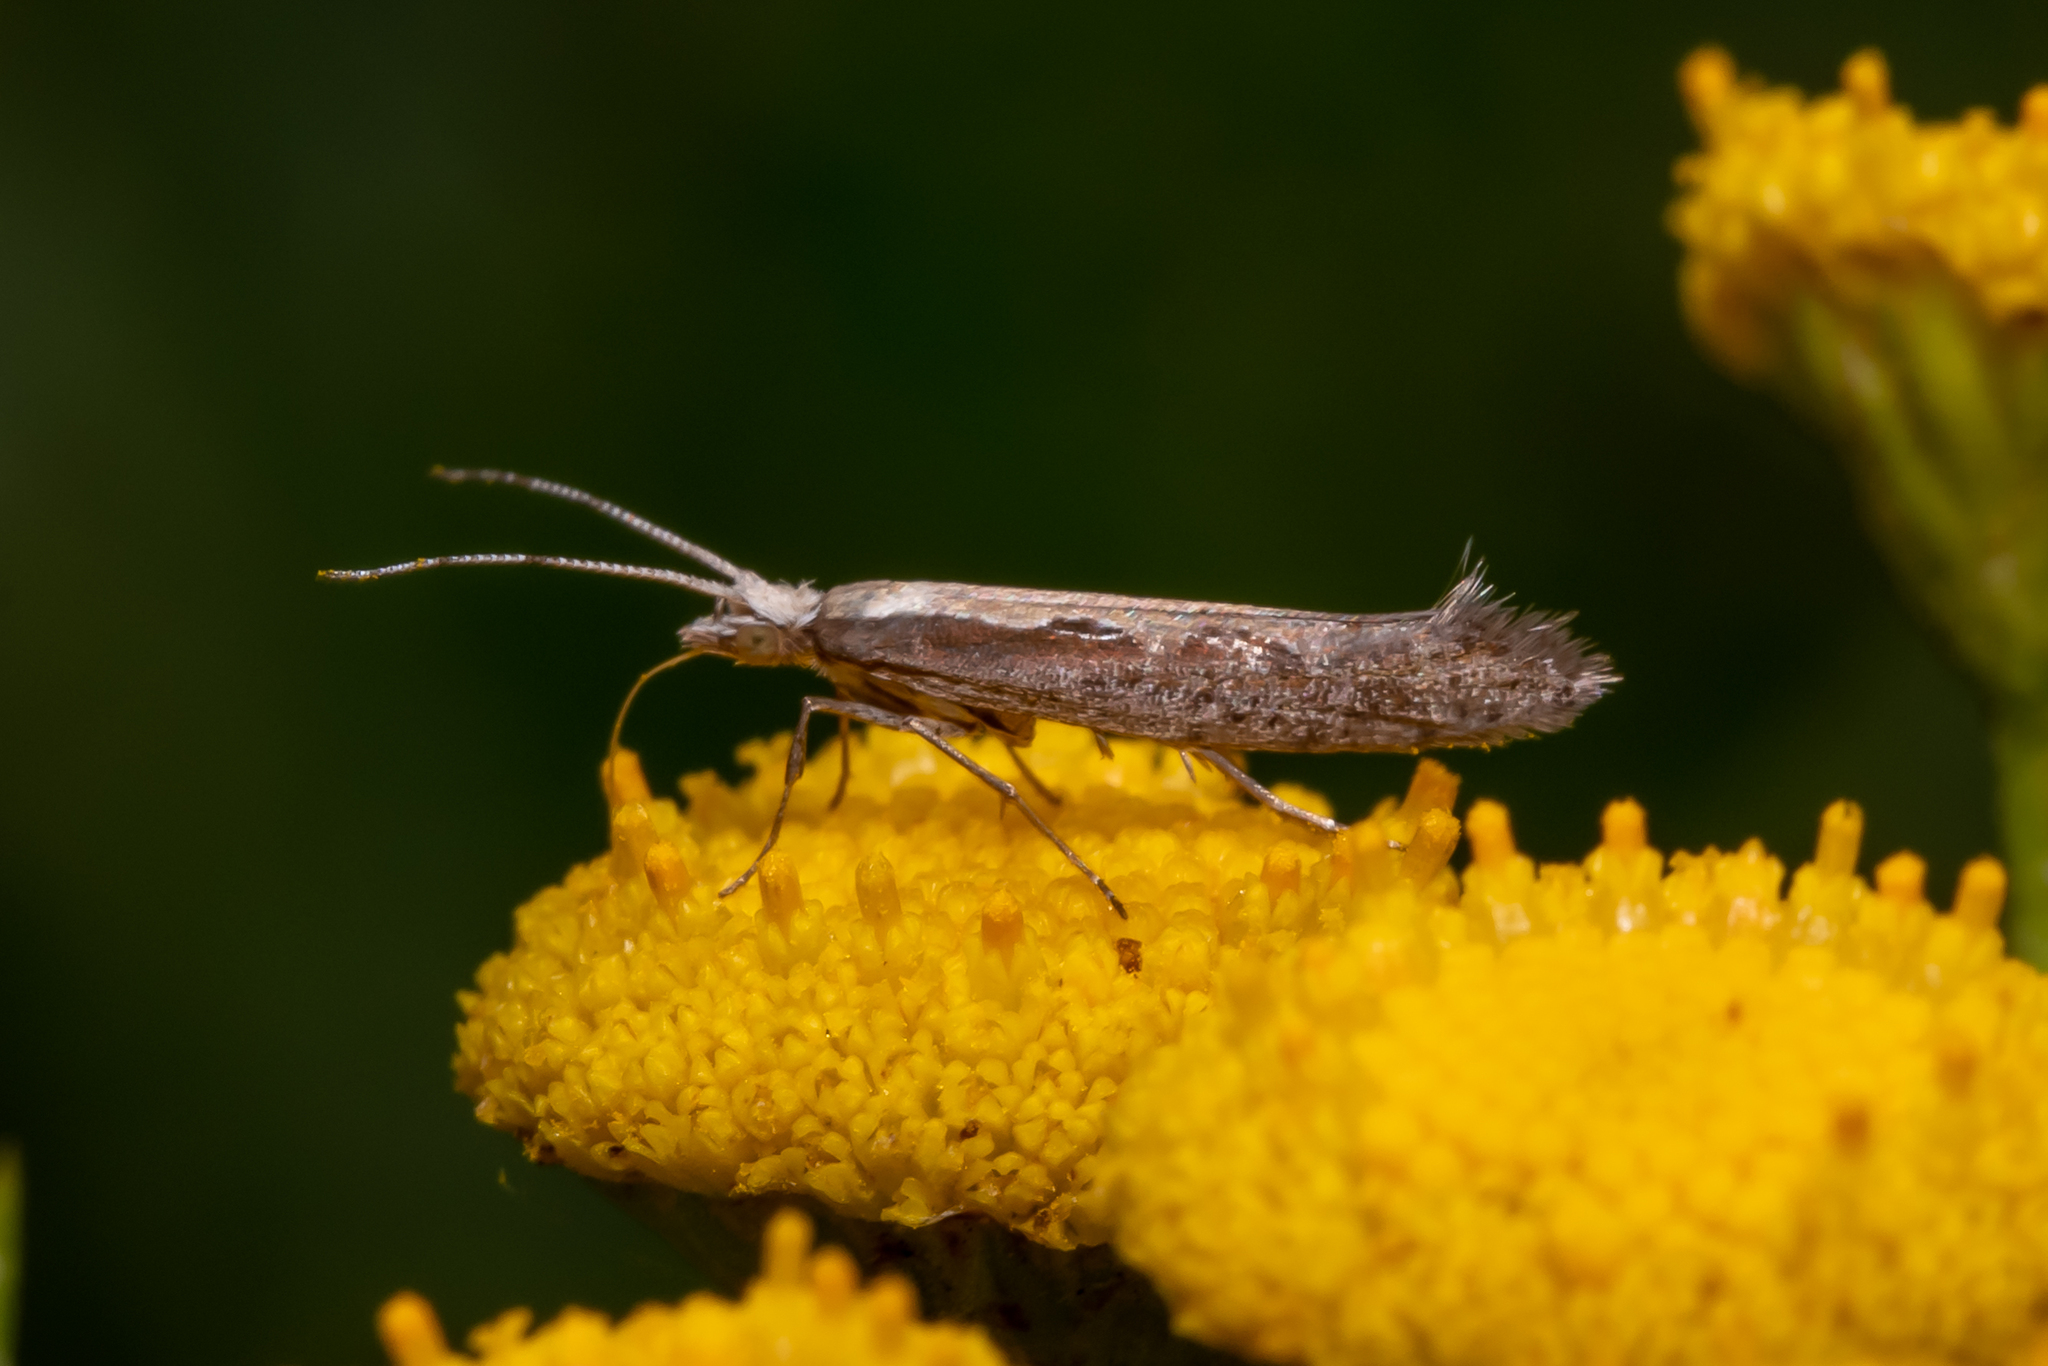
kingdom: Animalia
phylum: Arthropoda
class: Insecta
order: Lepidoptera
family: Plutellidae
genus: Plutella
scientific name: Plutella xylostella
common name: Diamond-back moth
